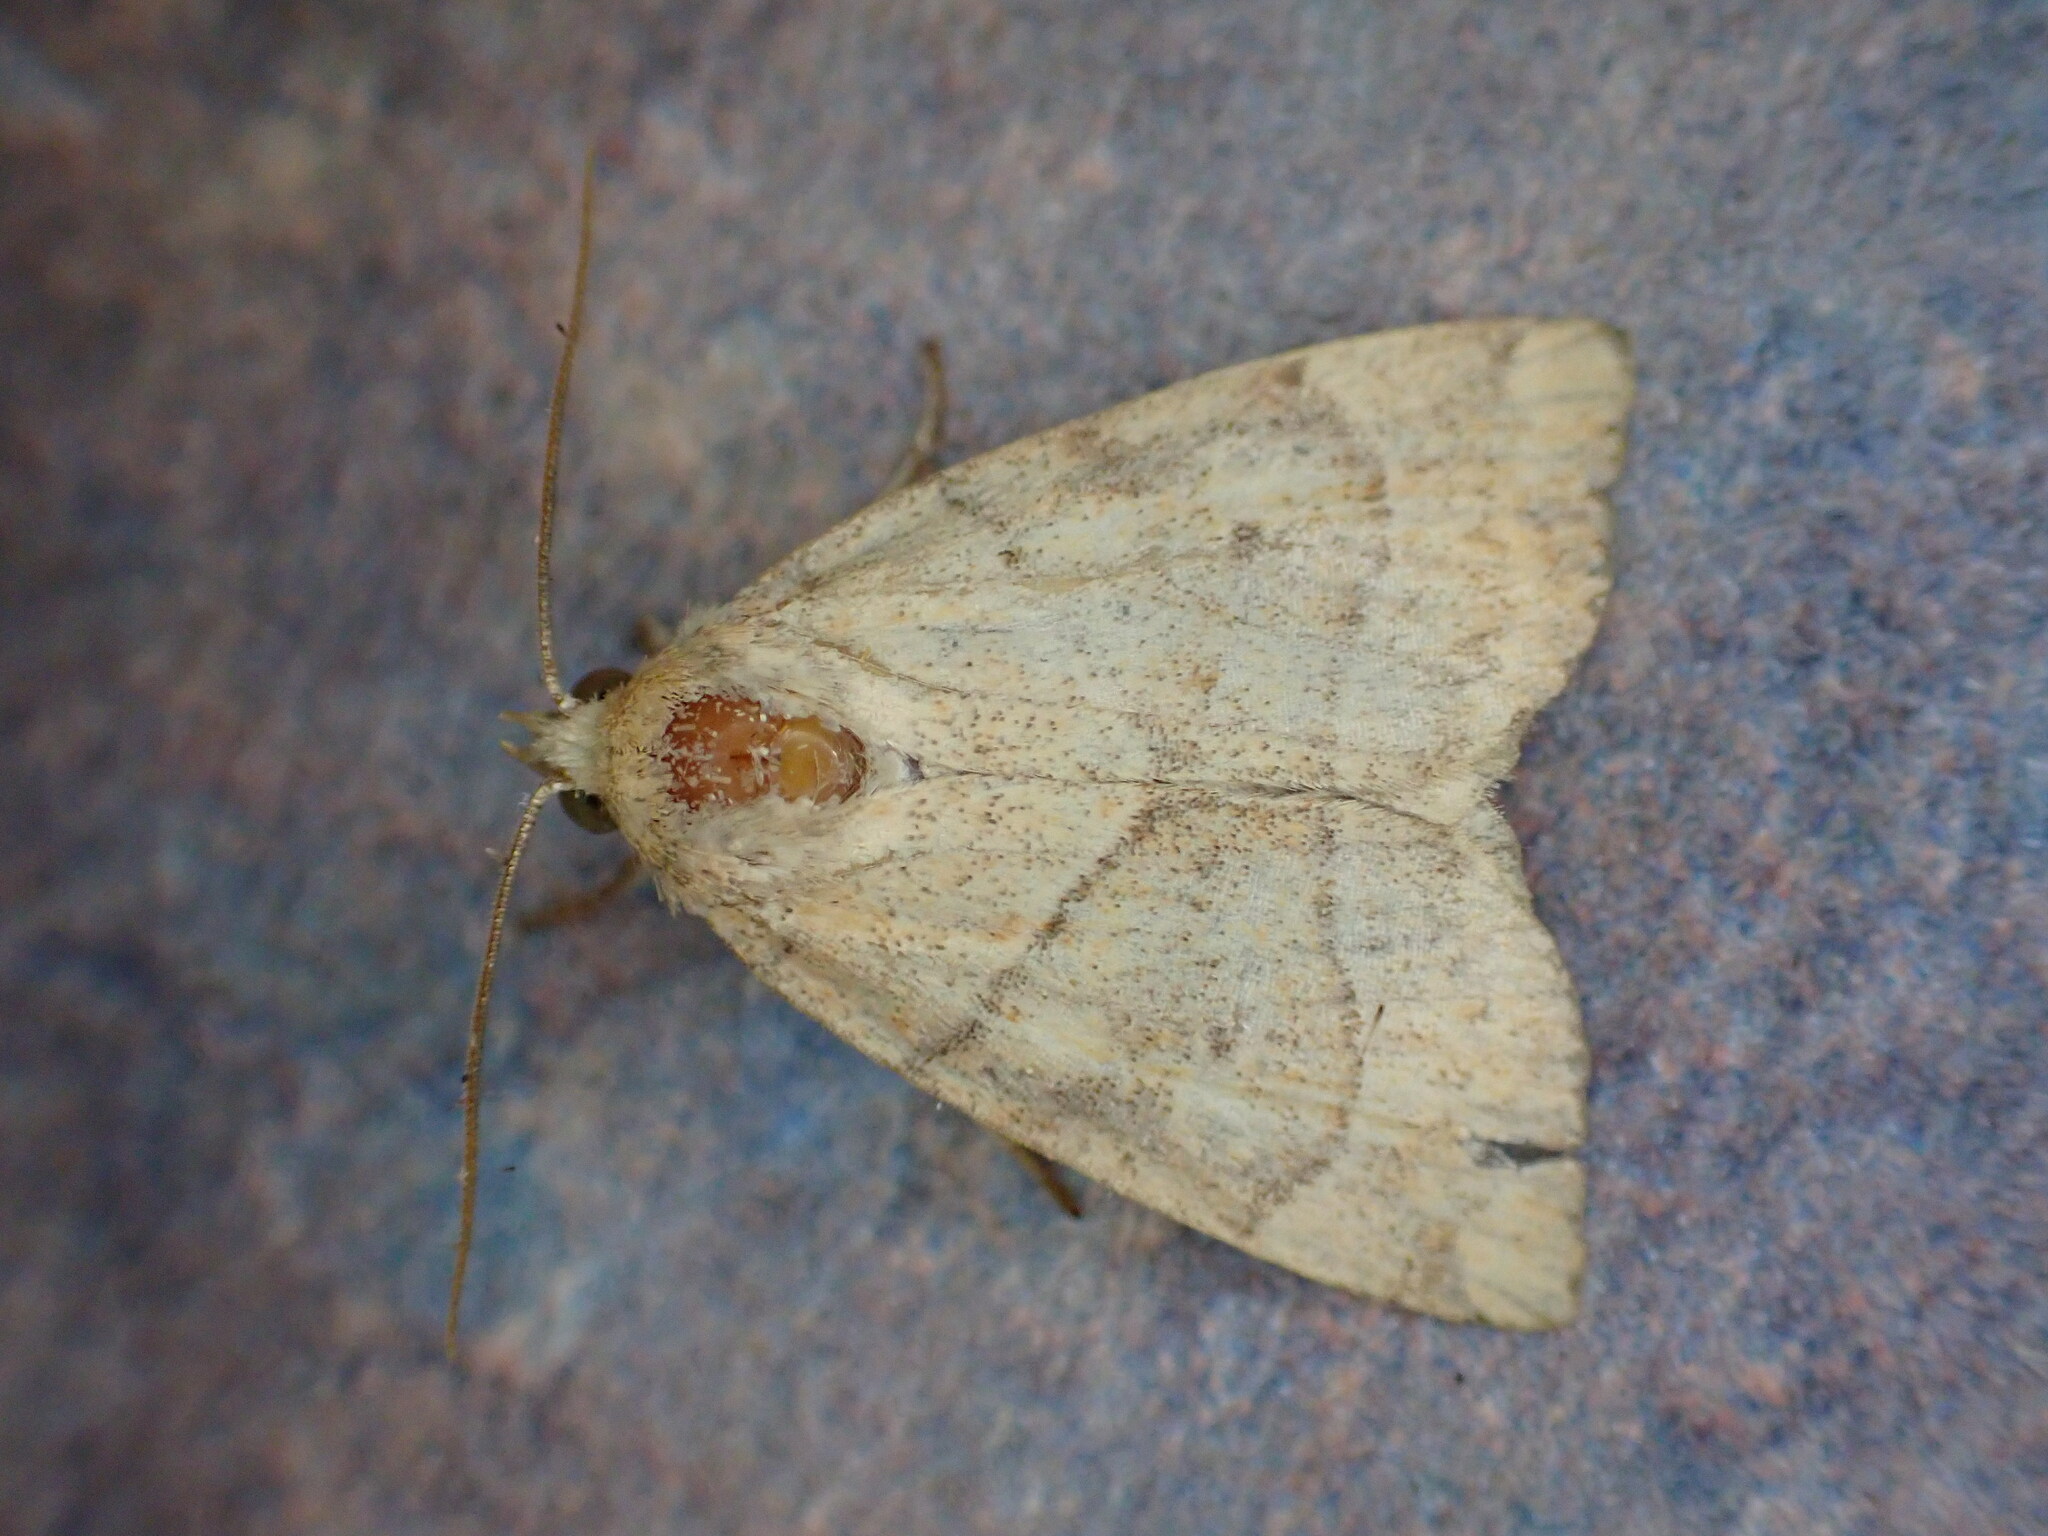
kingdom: Animalia
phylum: Arthropoda
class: Insecta
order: Lepidoptera
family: Noctuidae
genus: Cosmia
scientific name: Cosmia trapezina
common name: Dun-bar
